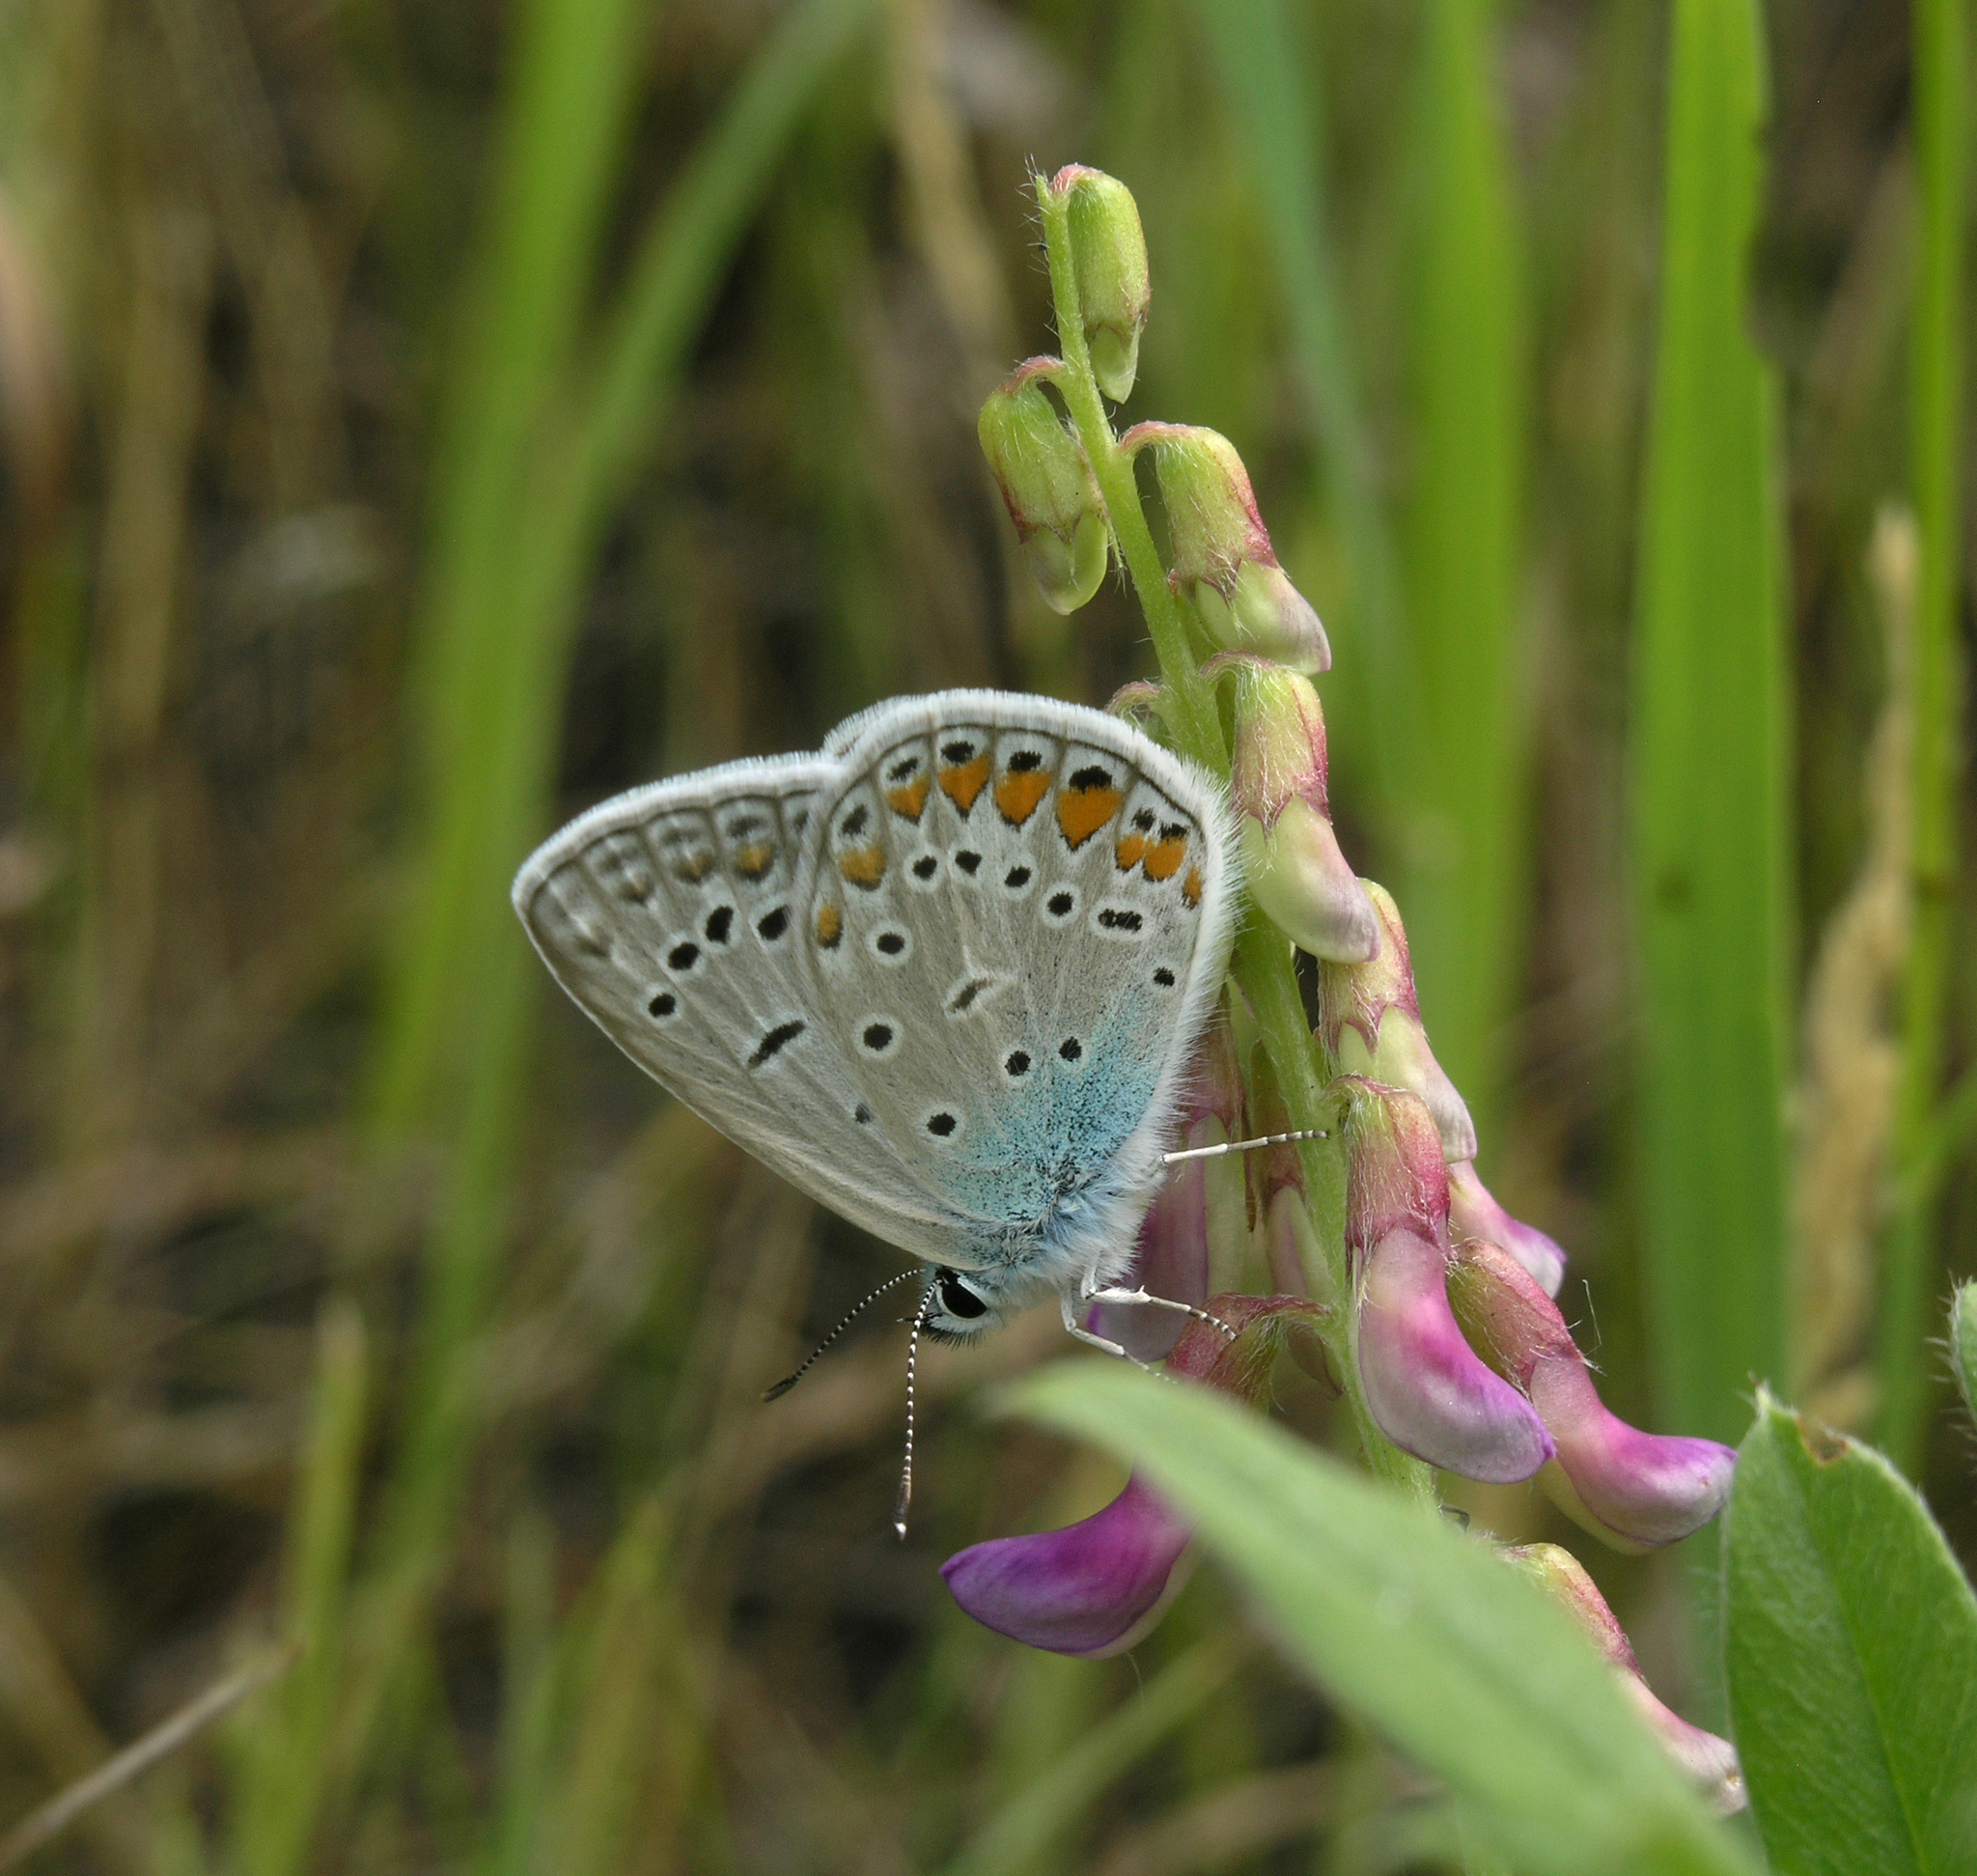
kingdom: Animalia
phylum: Arthropoda
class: Insecta
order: Lepidoptera
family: Lycaenidae
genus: Polyommatus
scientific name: Polyommatus icarus
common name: Common blue
